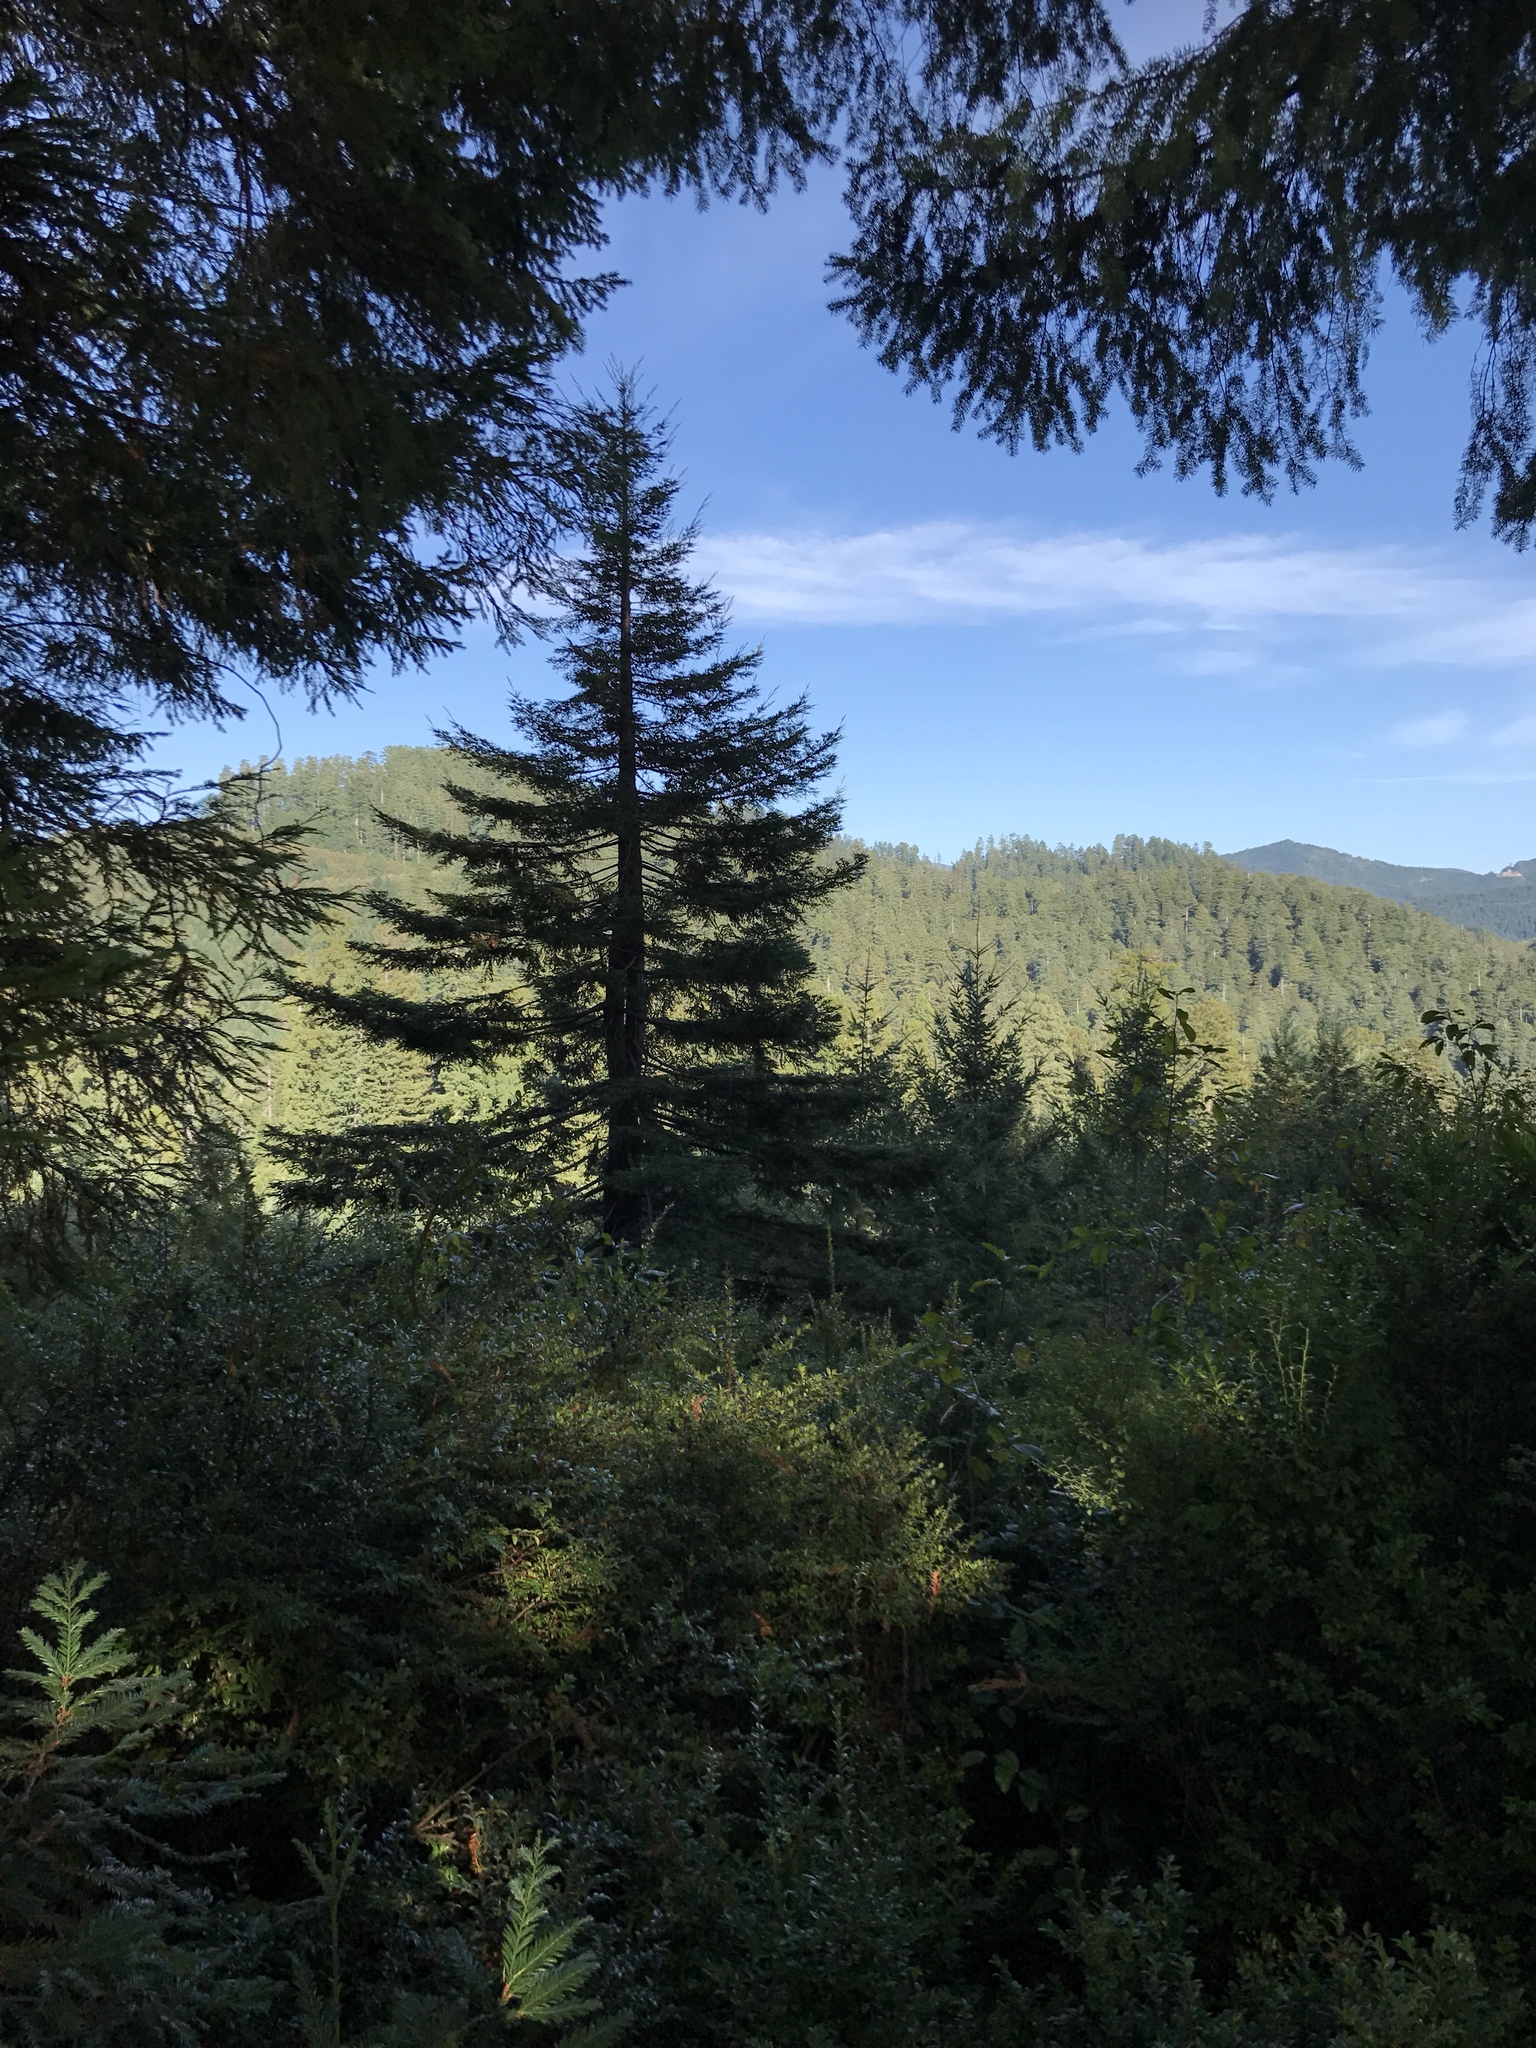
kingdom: Plantae
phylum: Tracheophyta
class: Pinopsida
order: Pinales
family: Pinaceae
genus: Pseudotsuga
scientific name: Pseudotsuga menziesii
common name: Douglas fir
